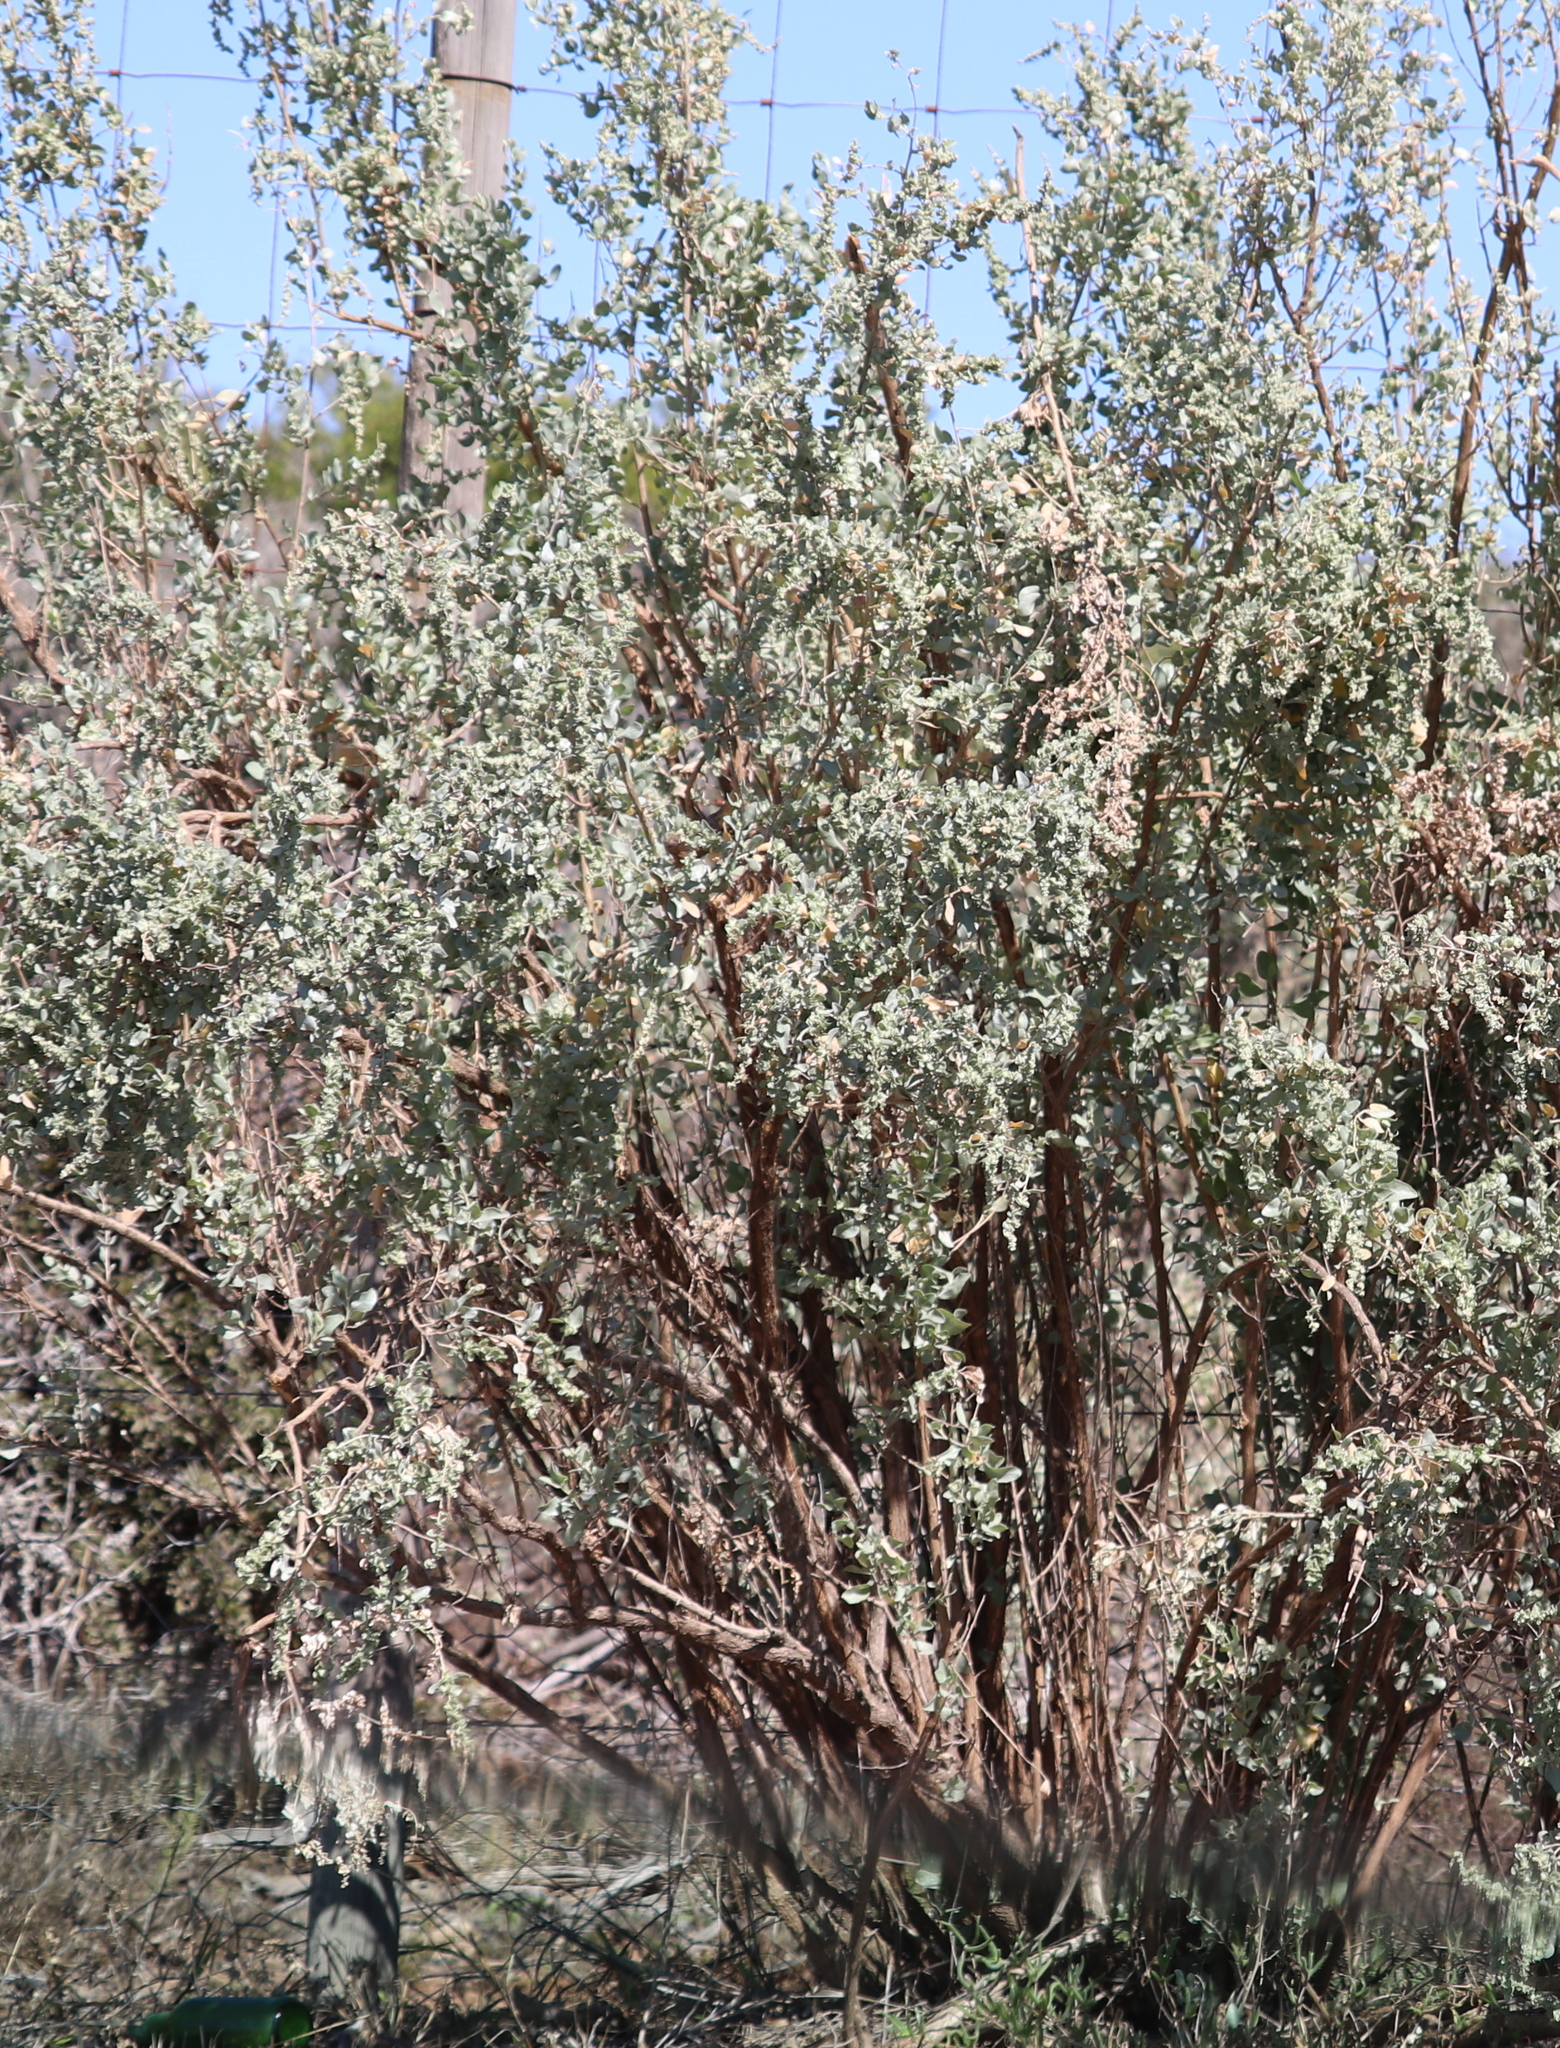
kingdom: Plantae
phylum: Tracheophyta
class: Magnoliopsida
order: Caryophyllales
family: Amaranthaceae
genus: Atriplex
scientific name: Atriplex nummularia
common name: Bluegreen saltbush
